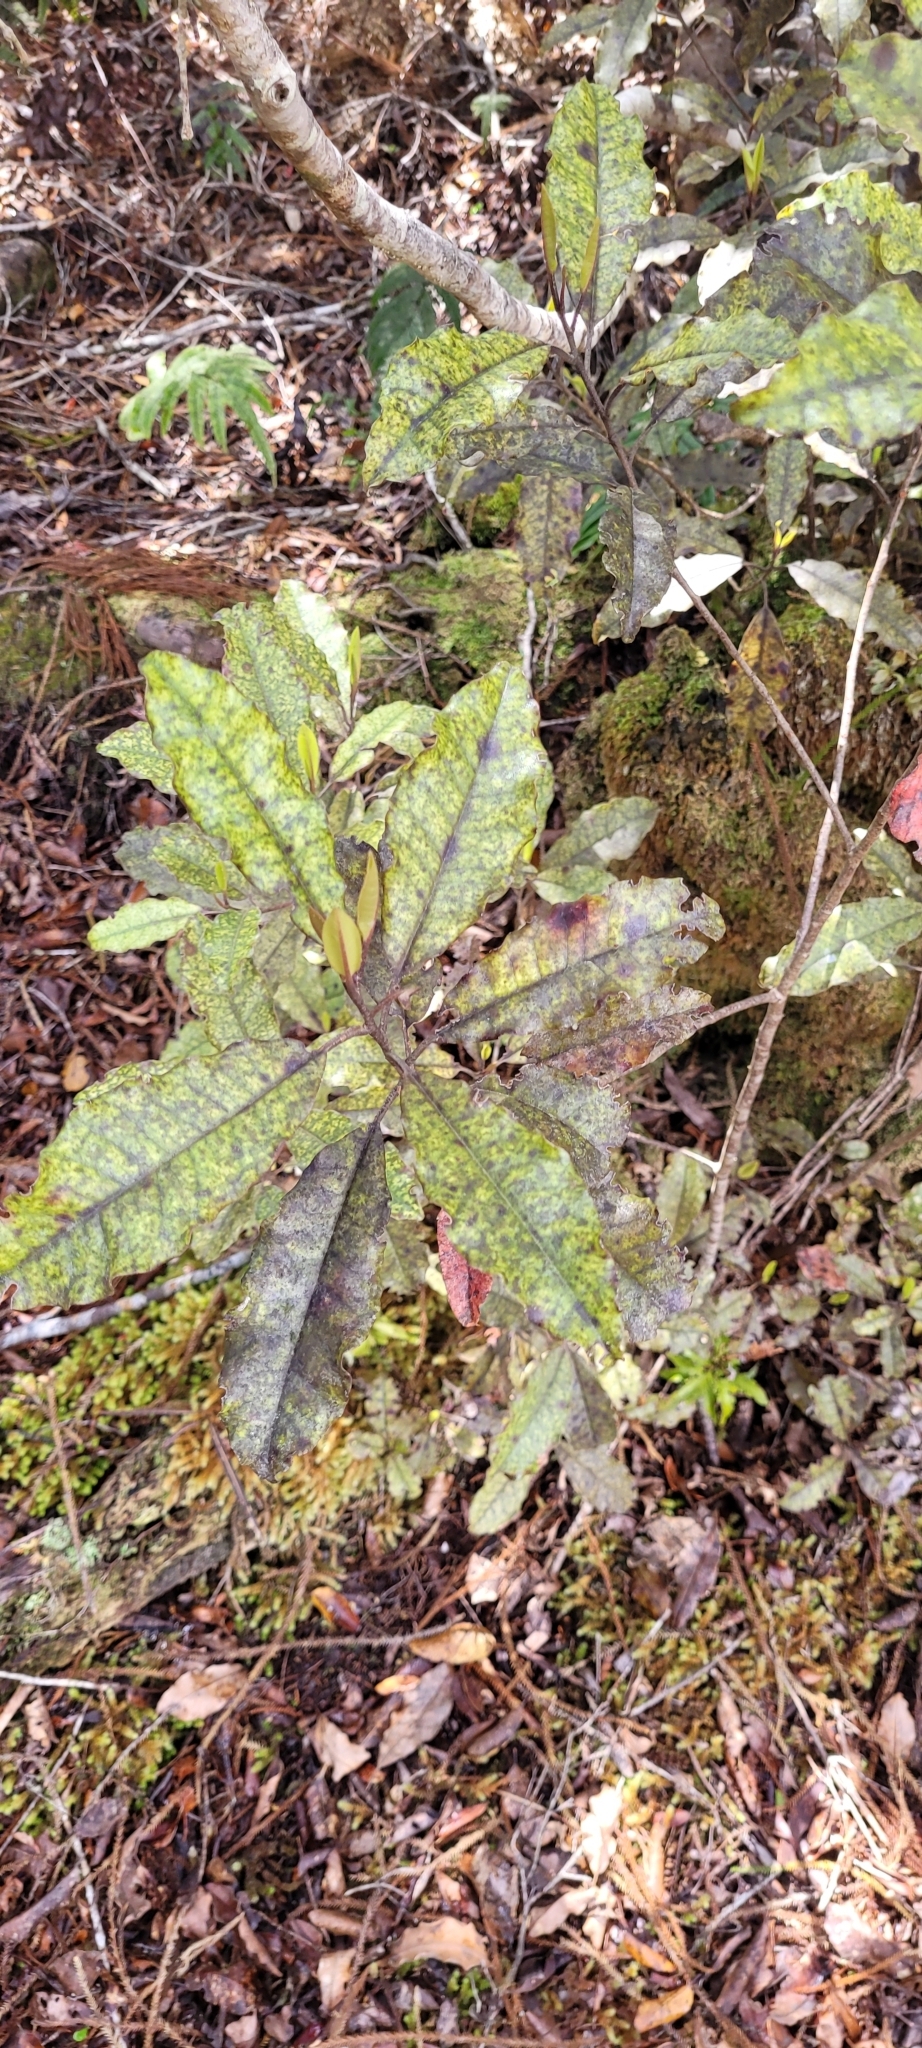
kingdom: Plantae
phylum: Tracheophyta
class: Magnoliopsida
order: Paracryphiales
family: Paracryphiaceae
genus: Quintinia
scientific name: Quintinia serrata
